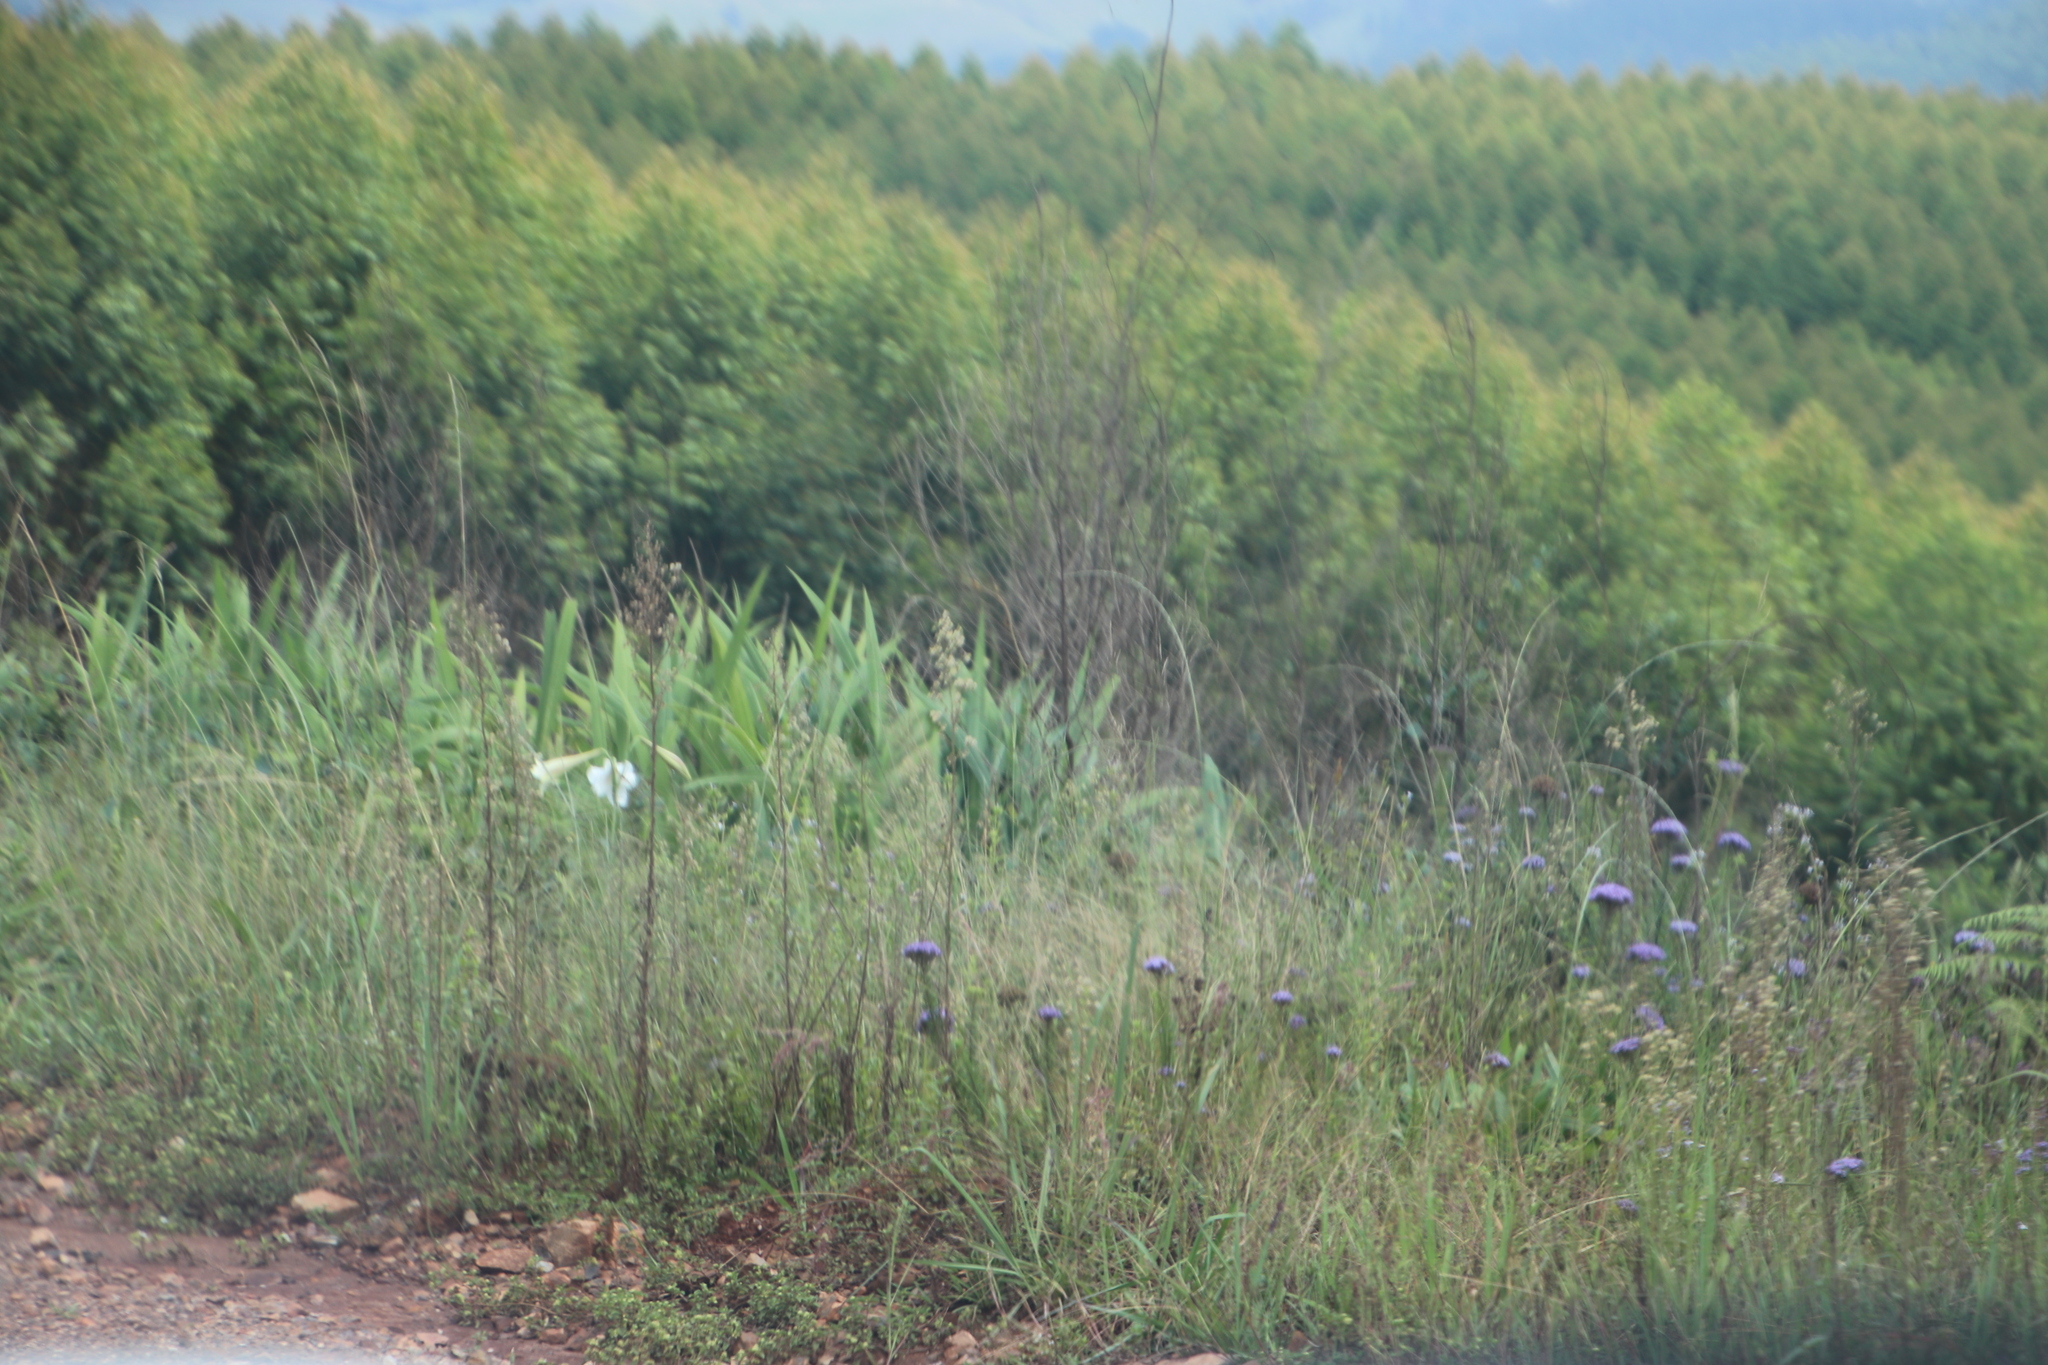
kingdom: Plantae
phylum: Tracheophyta
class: Liliopsida
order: Liliales
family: Liliaceae
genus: Lilium
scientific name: Lilium formosanum
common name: Formosa lily
